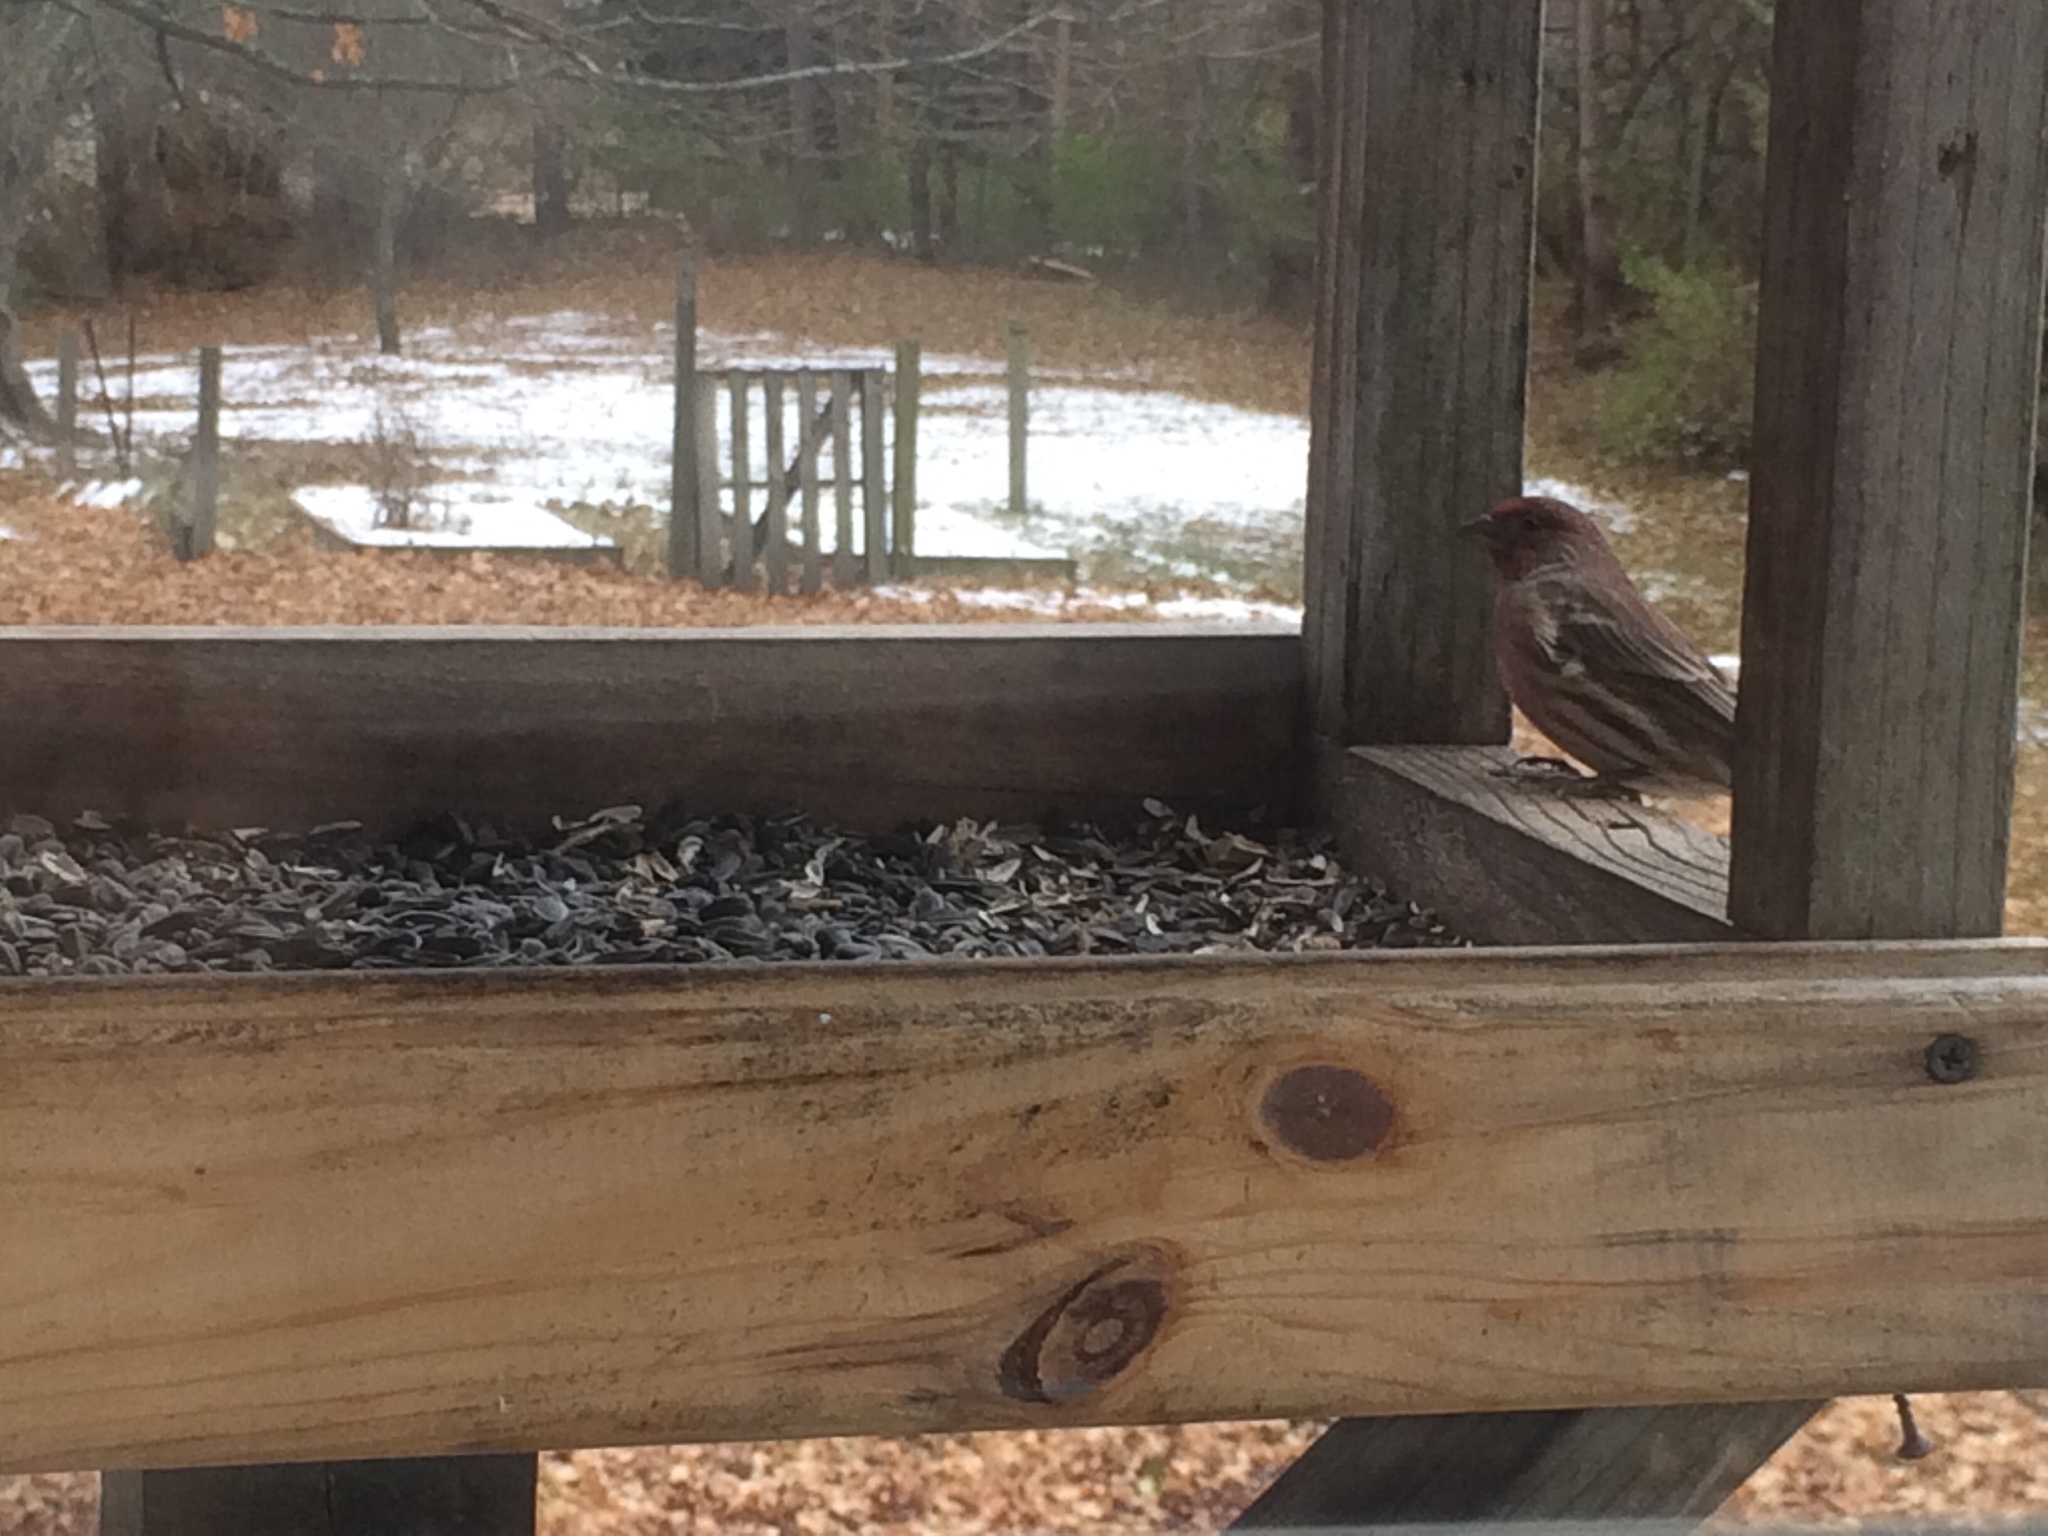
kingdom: Animalia
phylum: Chordata
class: Aves
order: Passeriformes
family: Fringillidae
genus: Haemorhous
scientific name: Haemorhous mexicanus
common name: House finch
